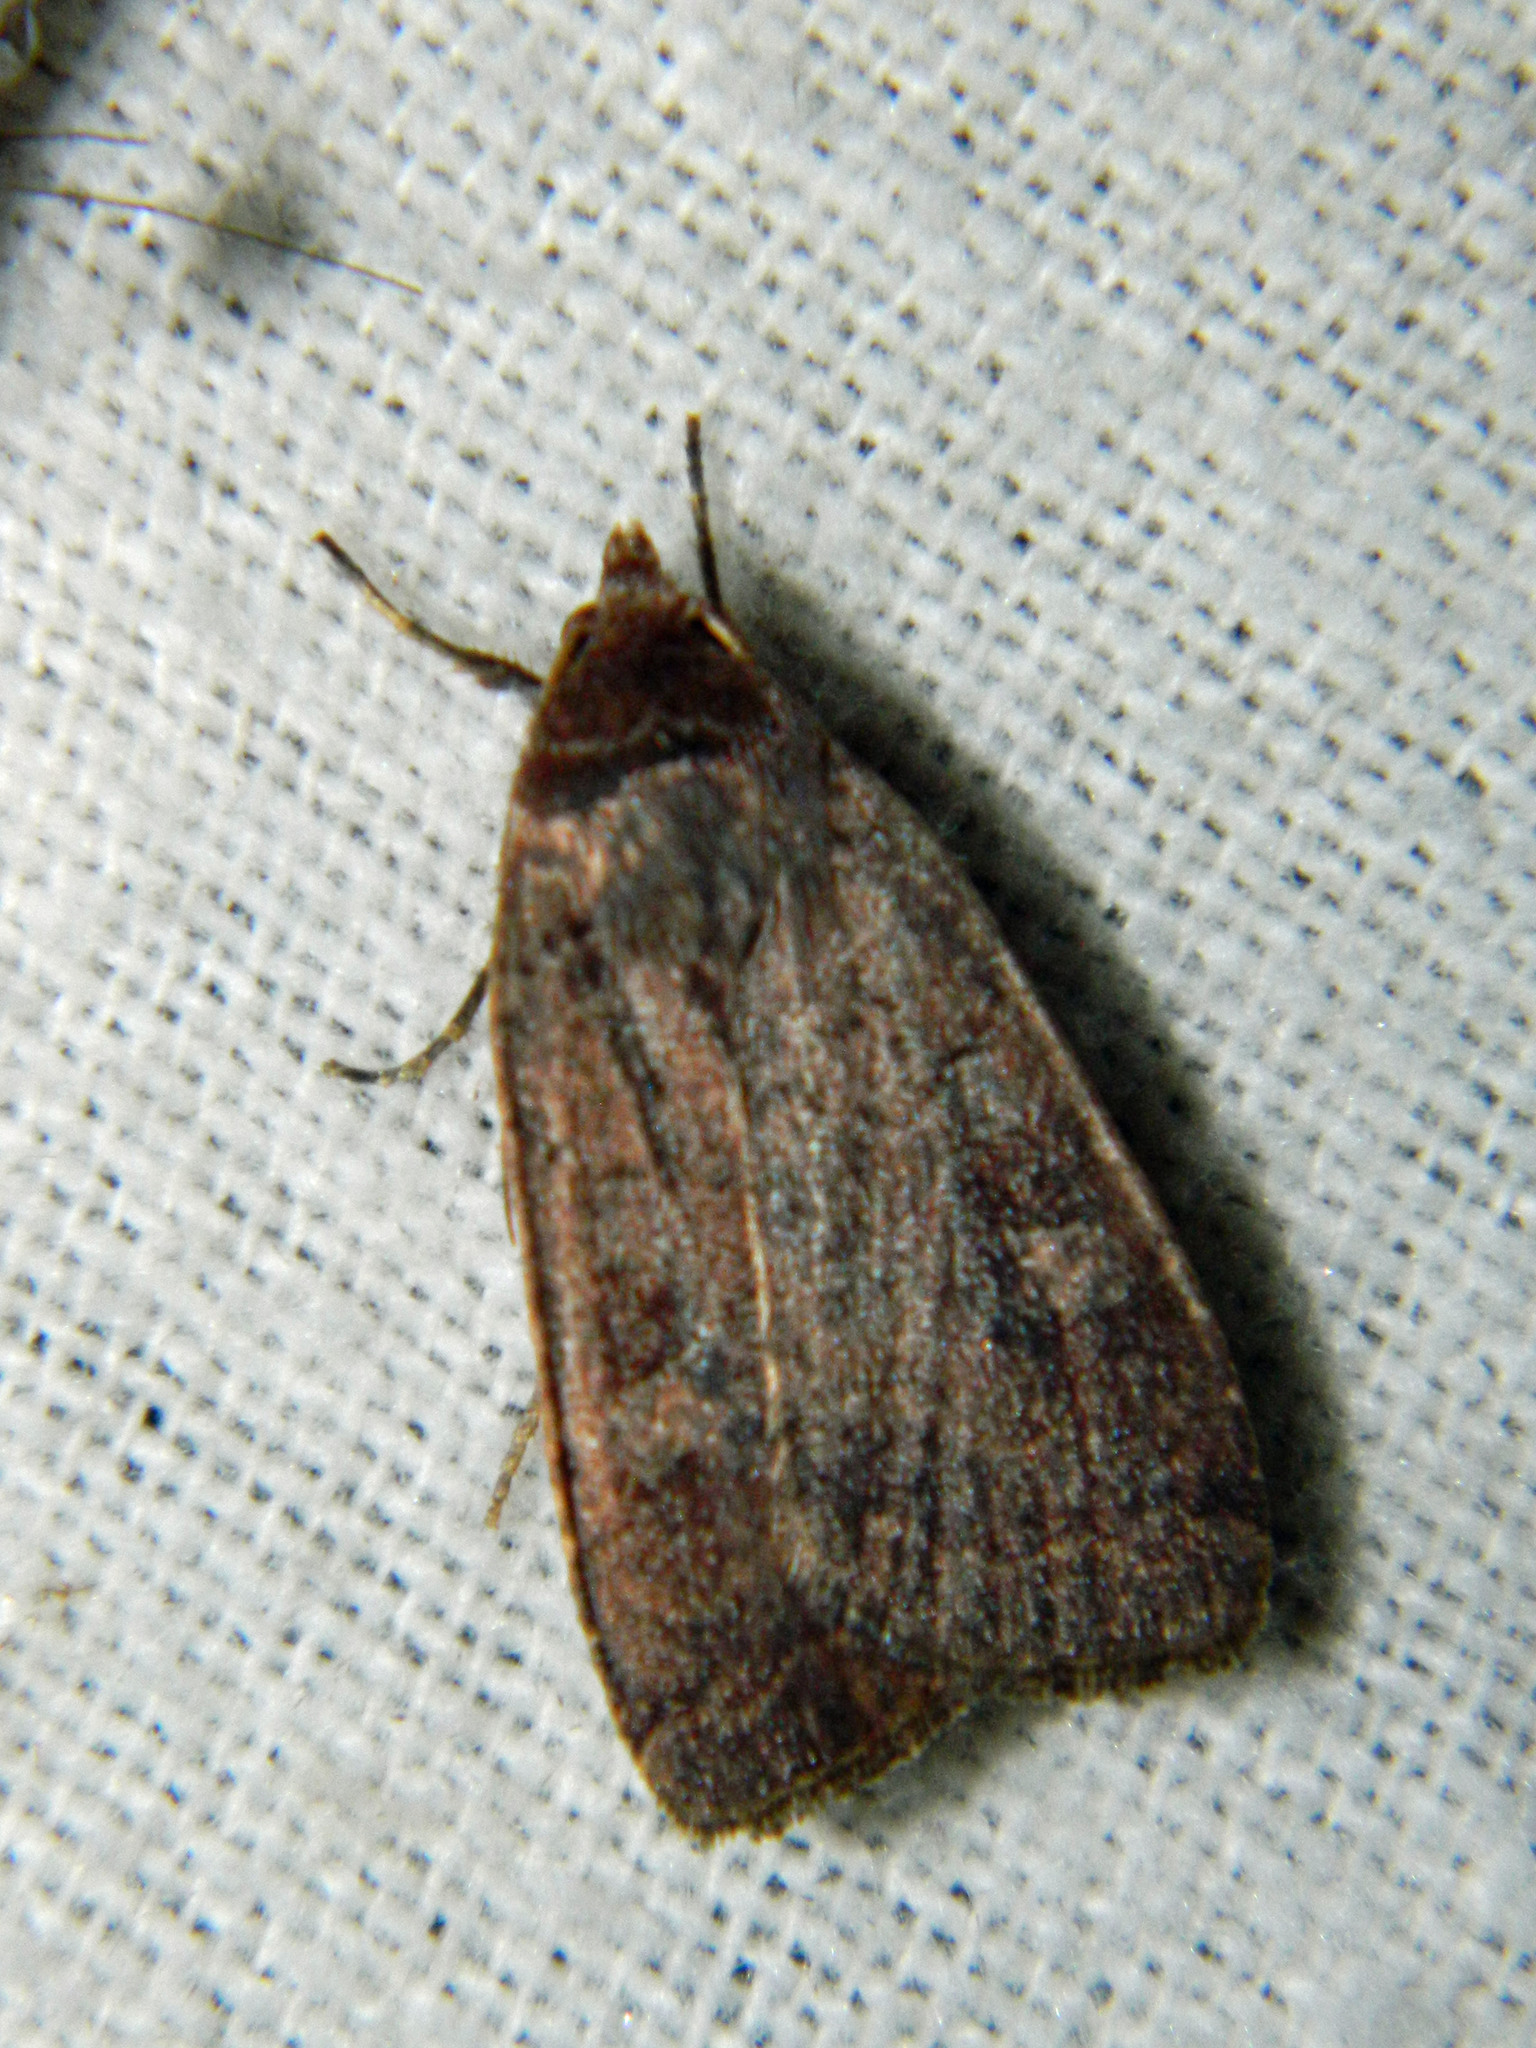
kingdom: Animalia
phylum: Arthropoda
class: Insecta
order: Lepidoptera
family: Noctuidae
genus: Orthodes
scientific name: Orthodes cynica
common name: Cynical quaker
